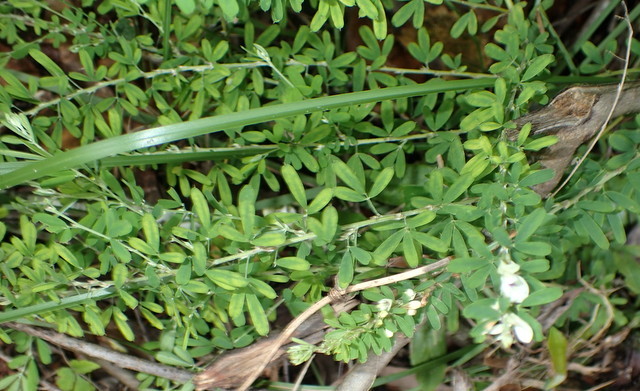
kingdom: Plantae
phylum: Tracheophyta
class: Magnoliopsida
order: Fabales
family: Fabaceae
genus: Lespedeza
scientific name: Lespedeza cuneata
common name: Chinese bush-clover
